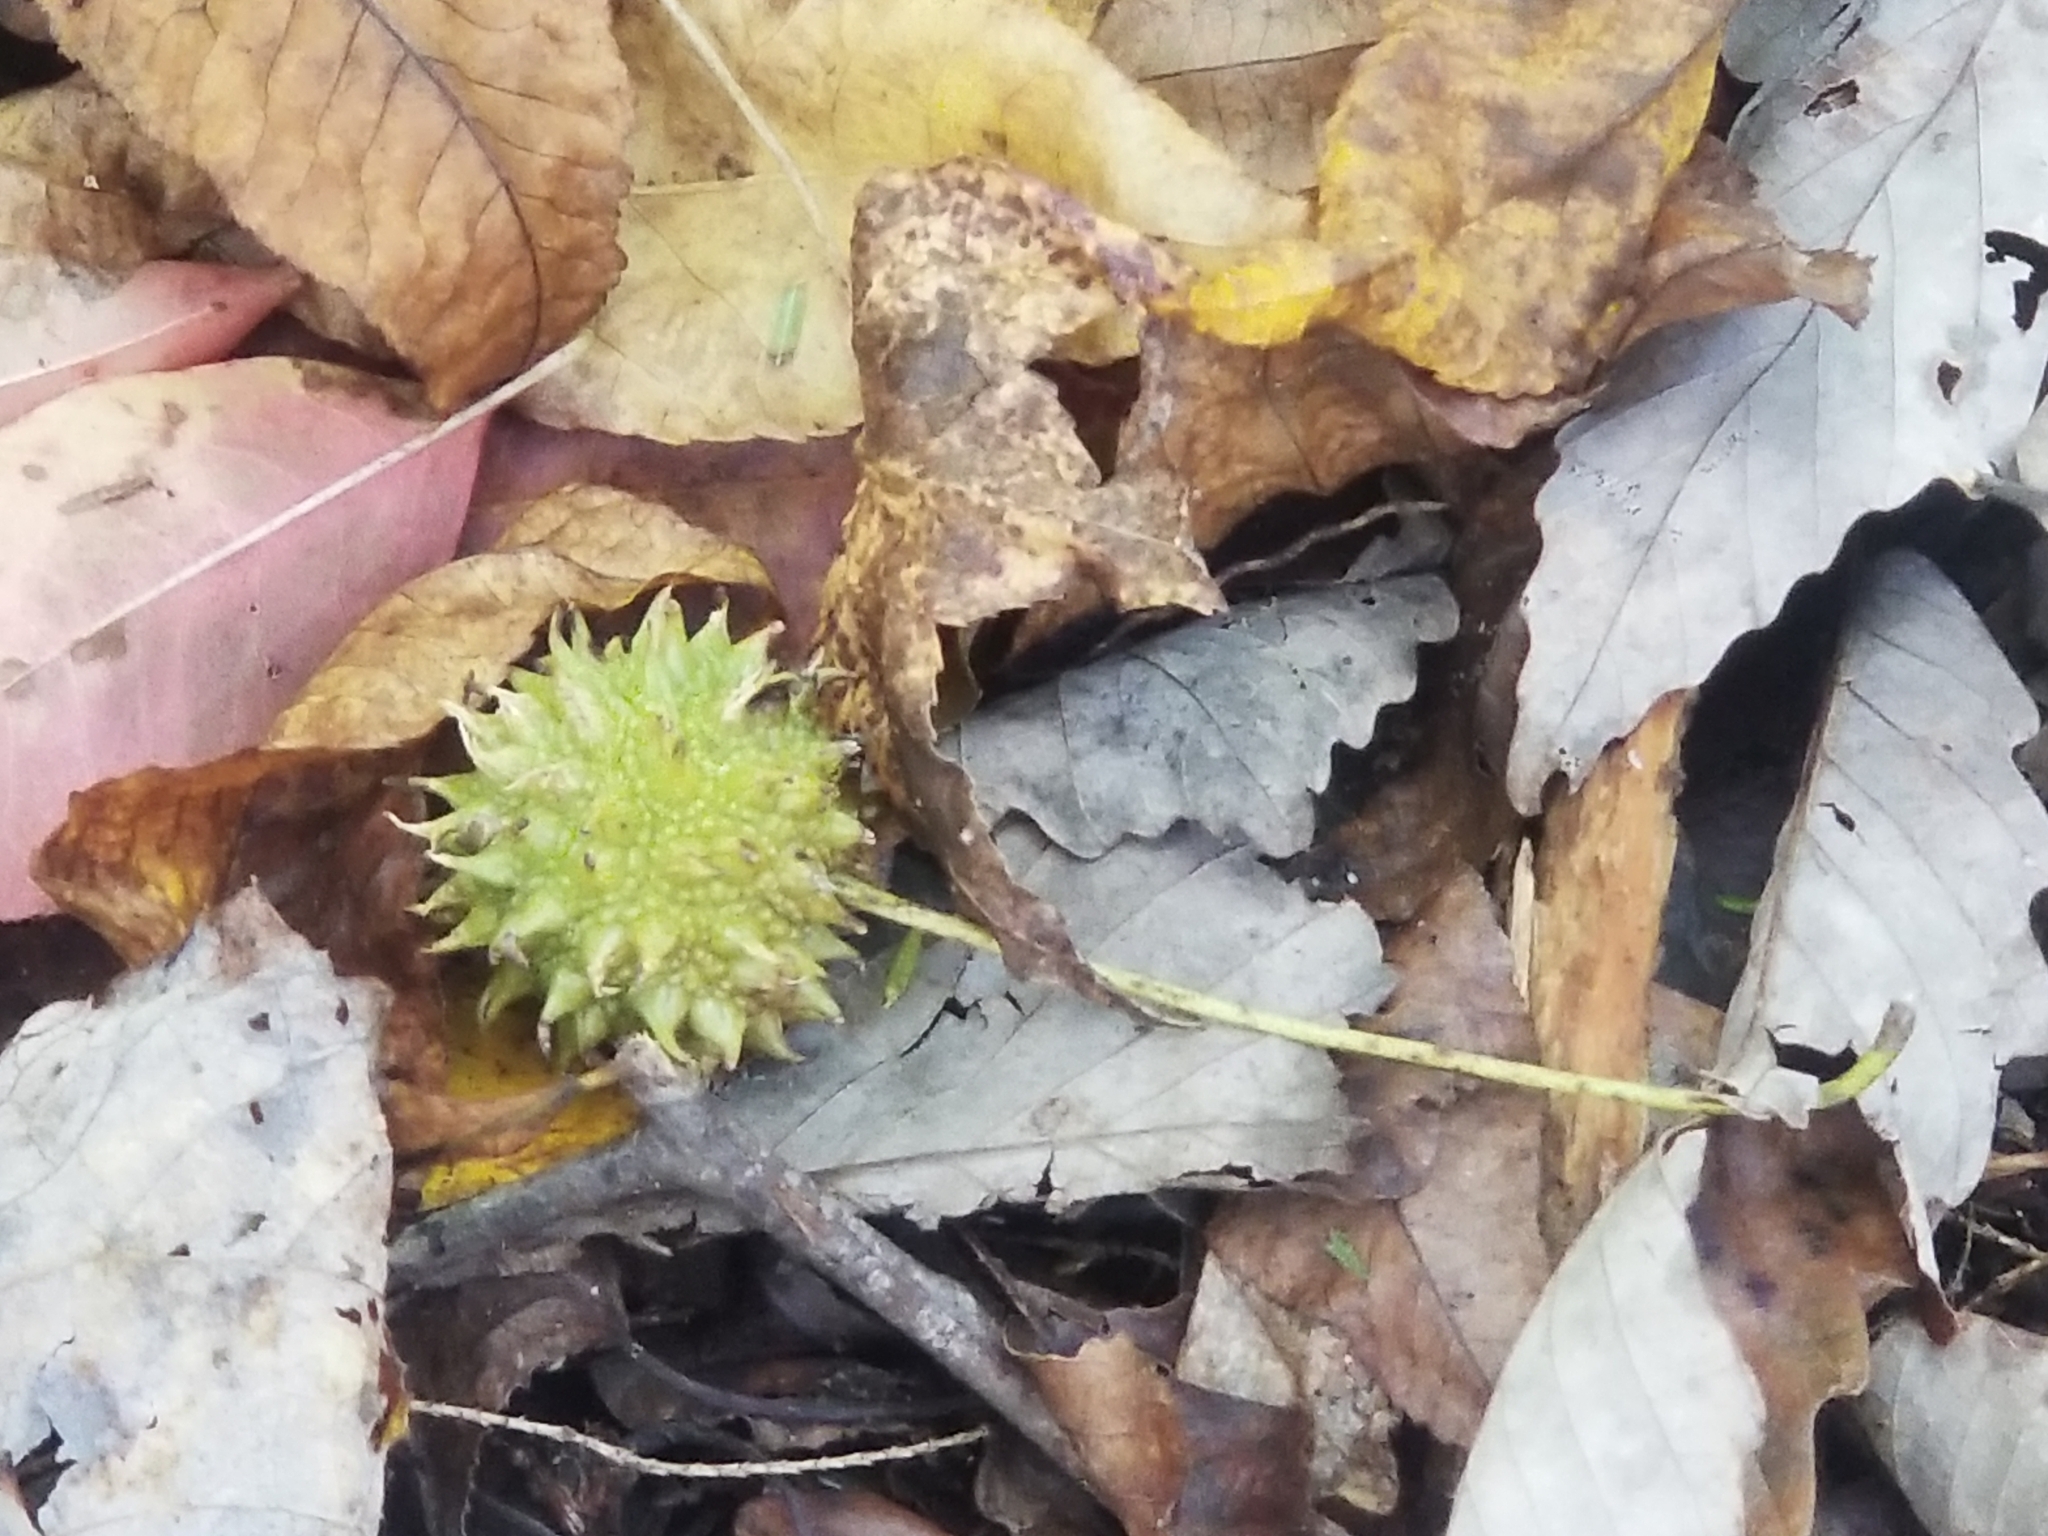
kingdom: Plantae
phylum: Tracheophyta
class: Magnoliopsida
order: Saxifragales
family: Altingiaceae
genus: Liquidambar
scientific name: Liquidambar styraciflua
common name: Sweet gum
